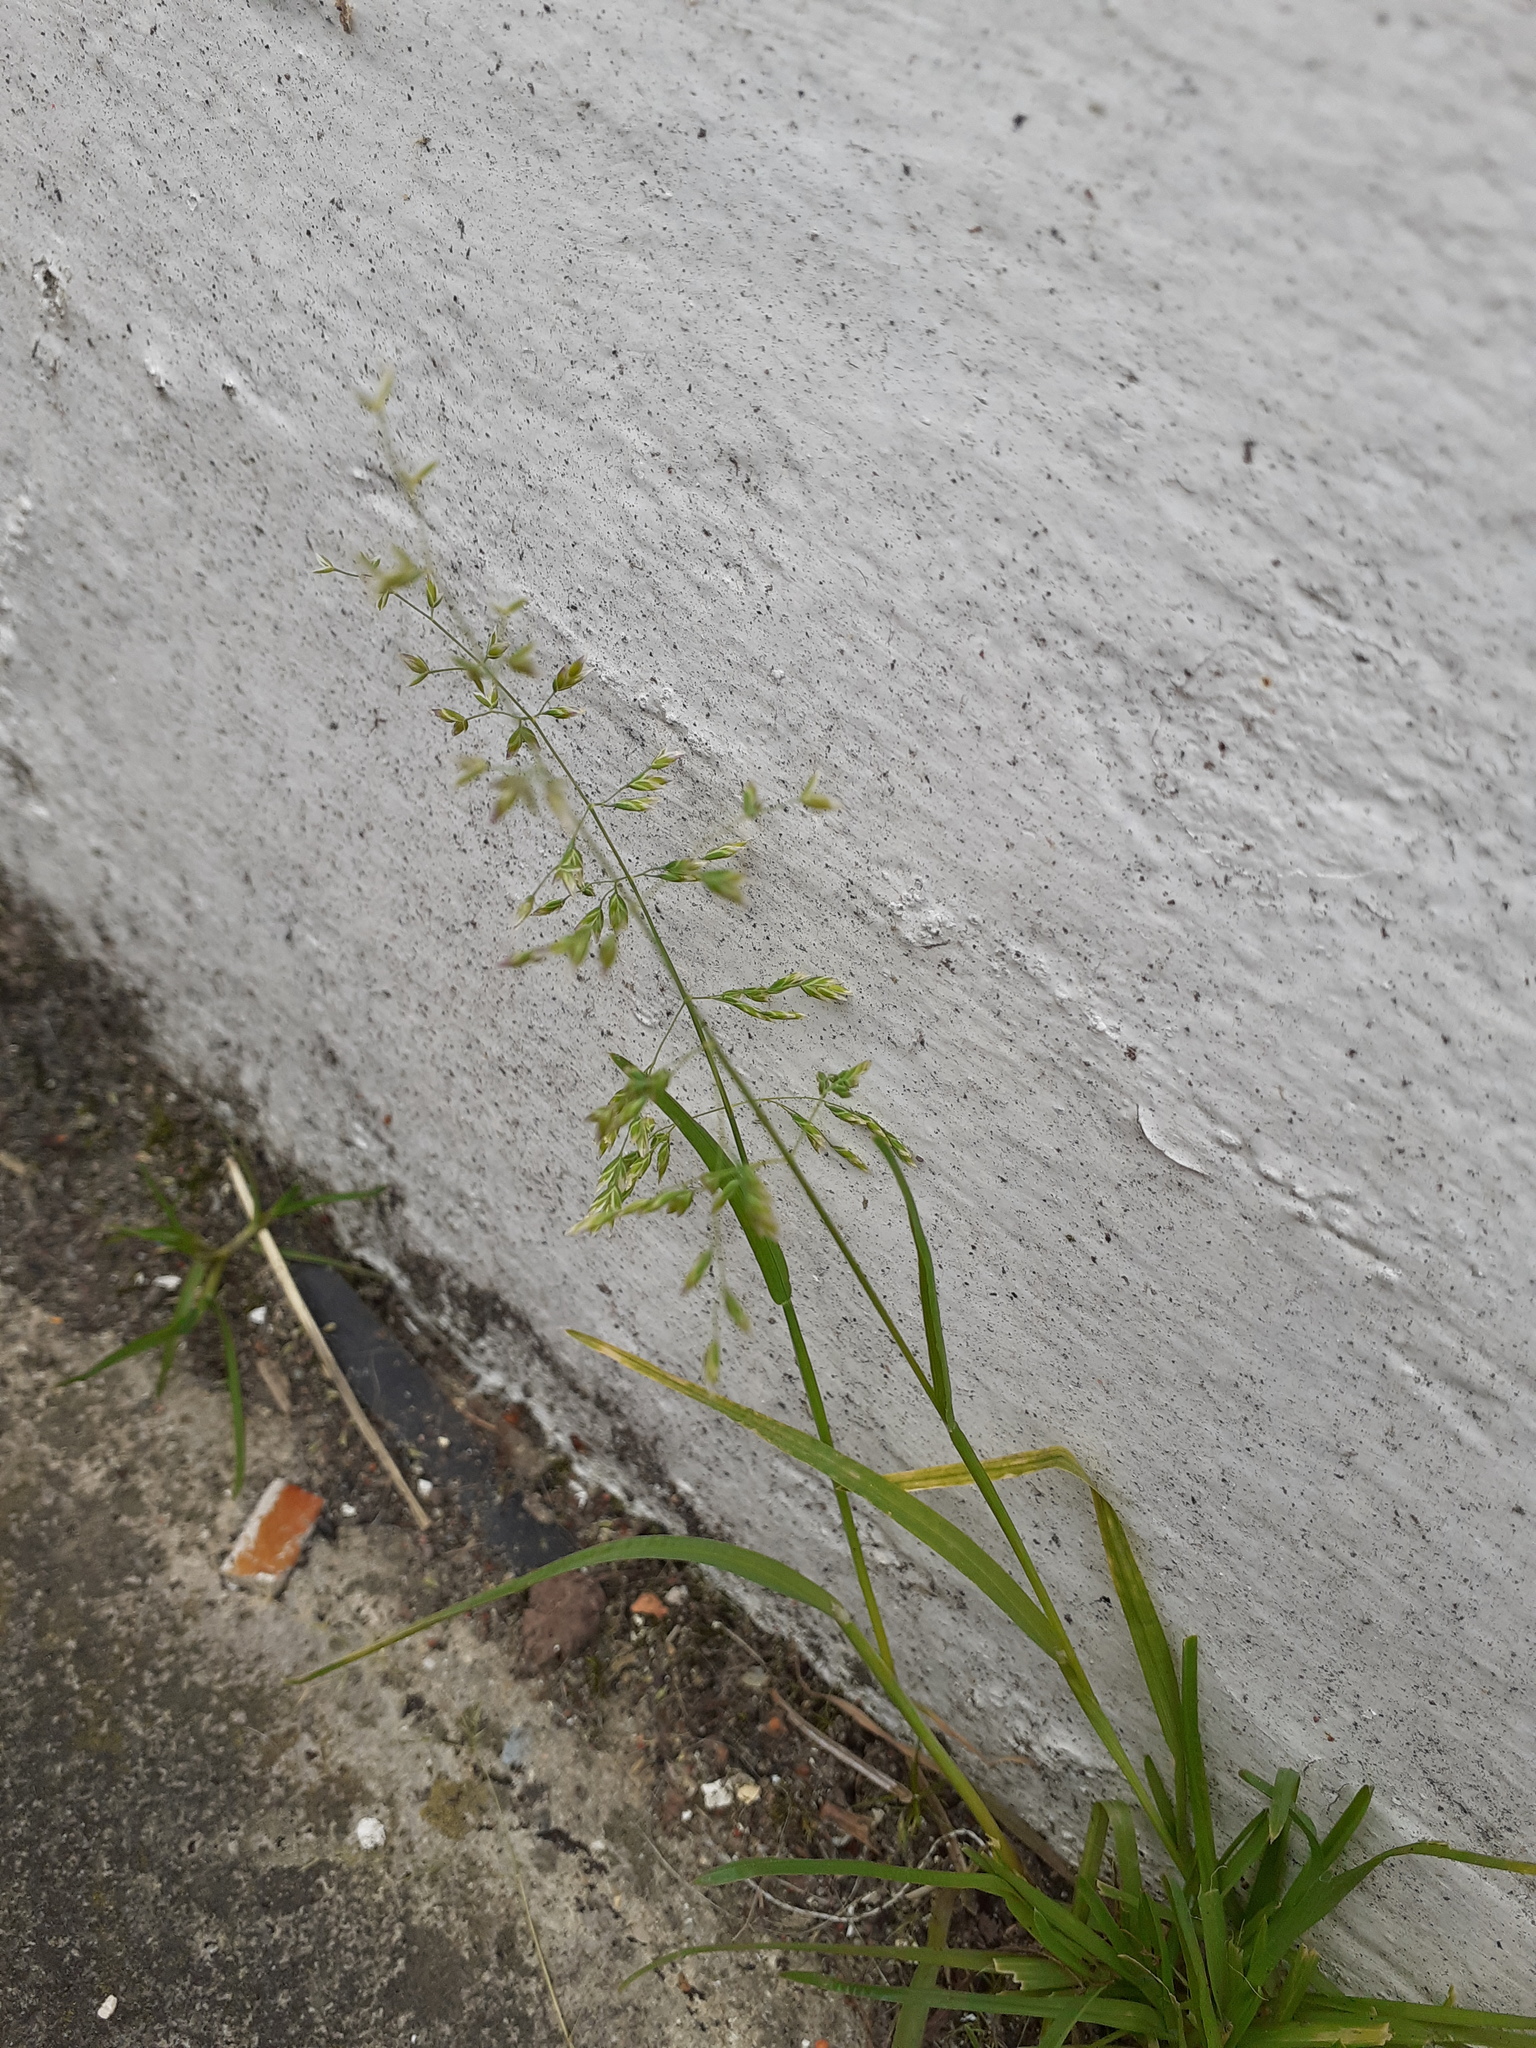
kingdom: Plantae
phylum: Tracheophyta
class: Liliopsida
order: Poales
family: Poaceae
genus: Poa
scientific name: Poa annua
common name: Annual bluegrass
